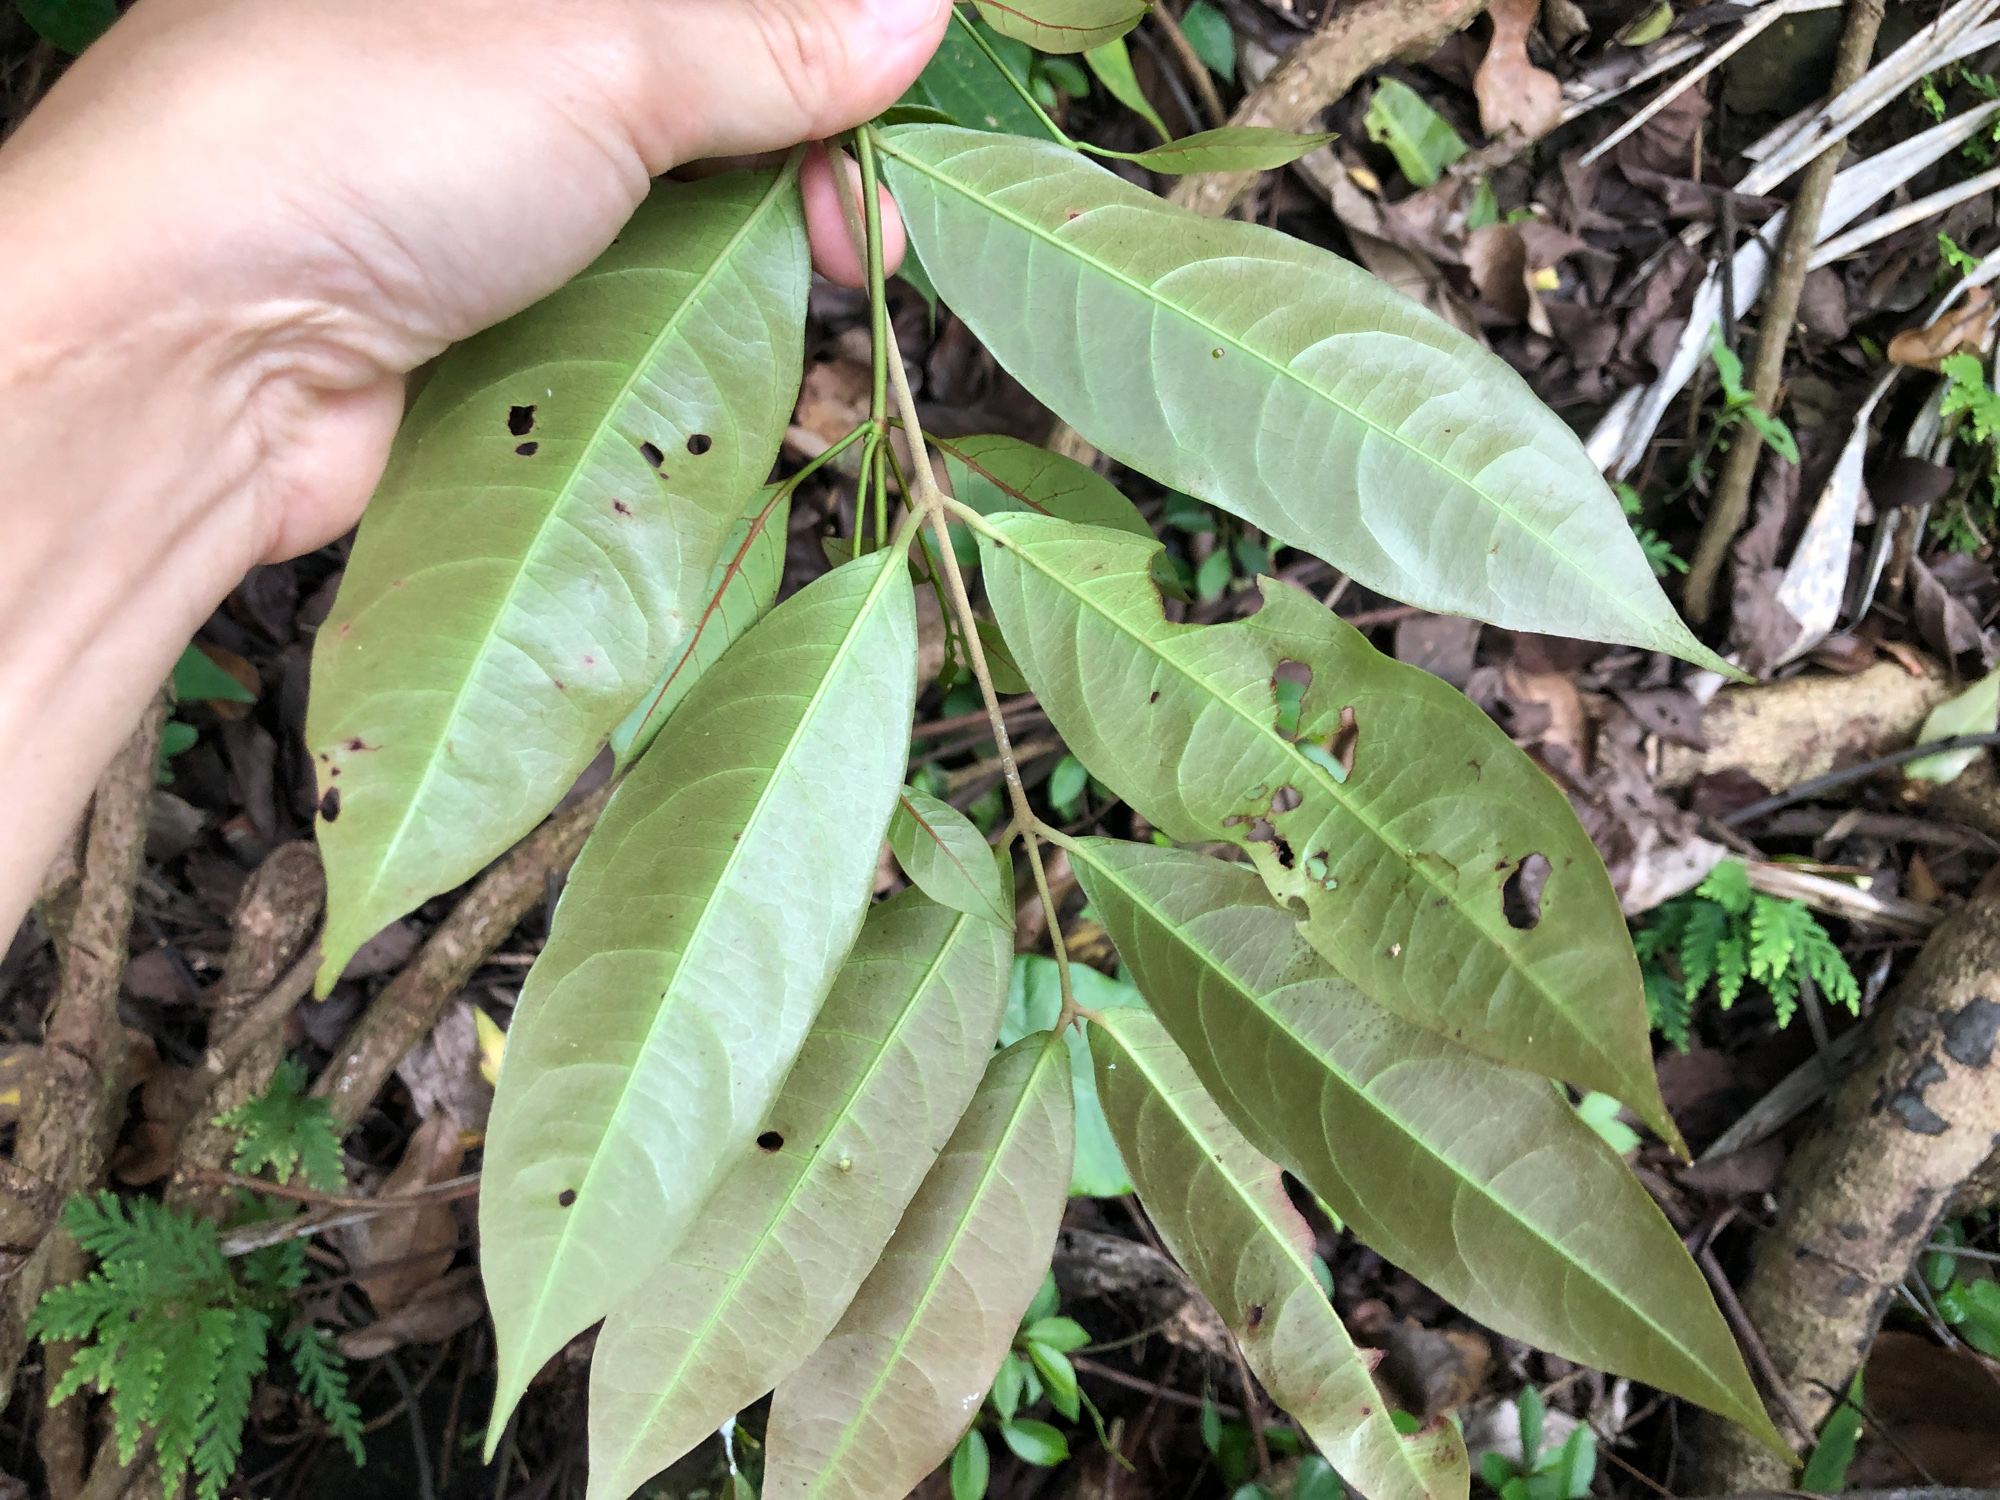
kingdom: Plantae
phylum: Tracheophyta
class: Magnoliopsida
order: Malpighiales
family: Malpighiaceae
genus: Hiptage
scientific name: Hiptage benghalensis
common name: Hiptage
